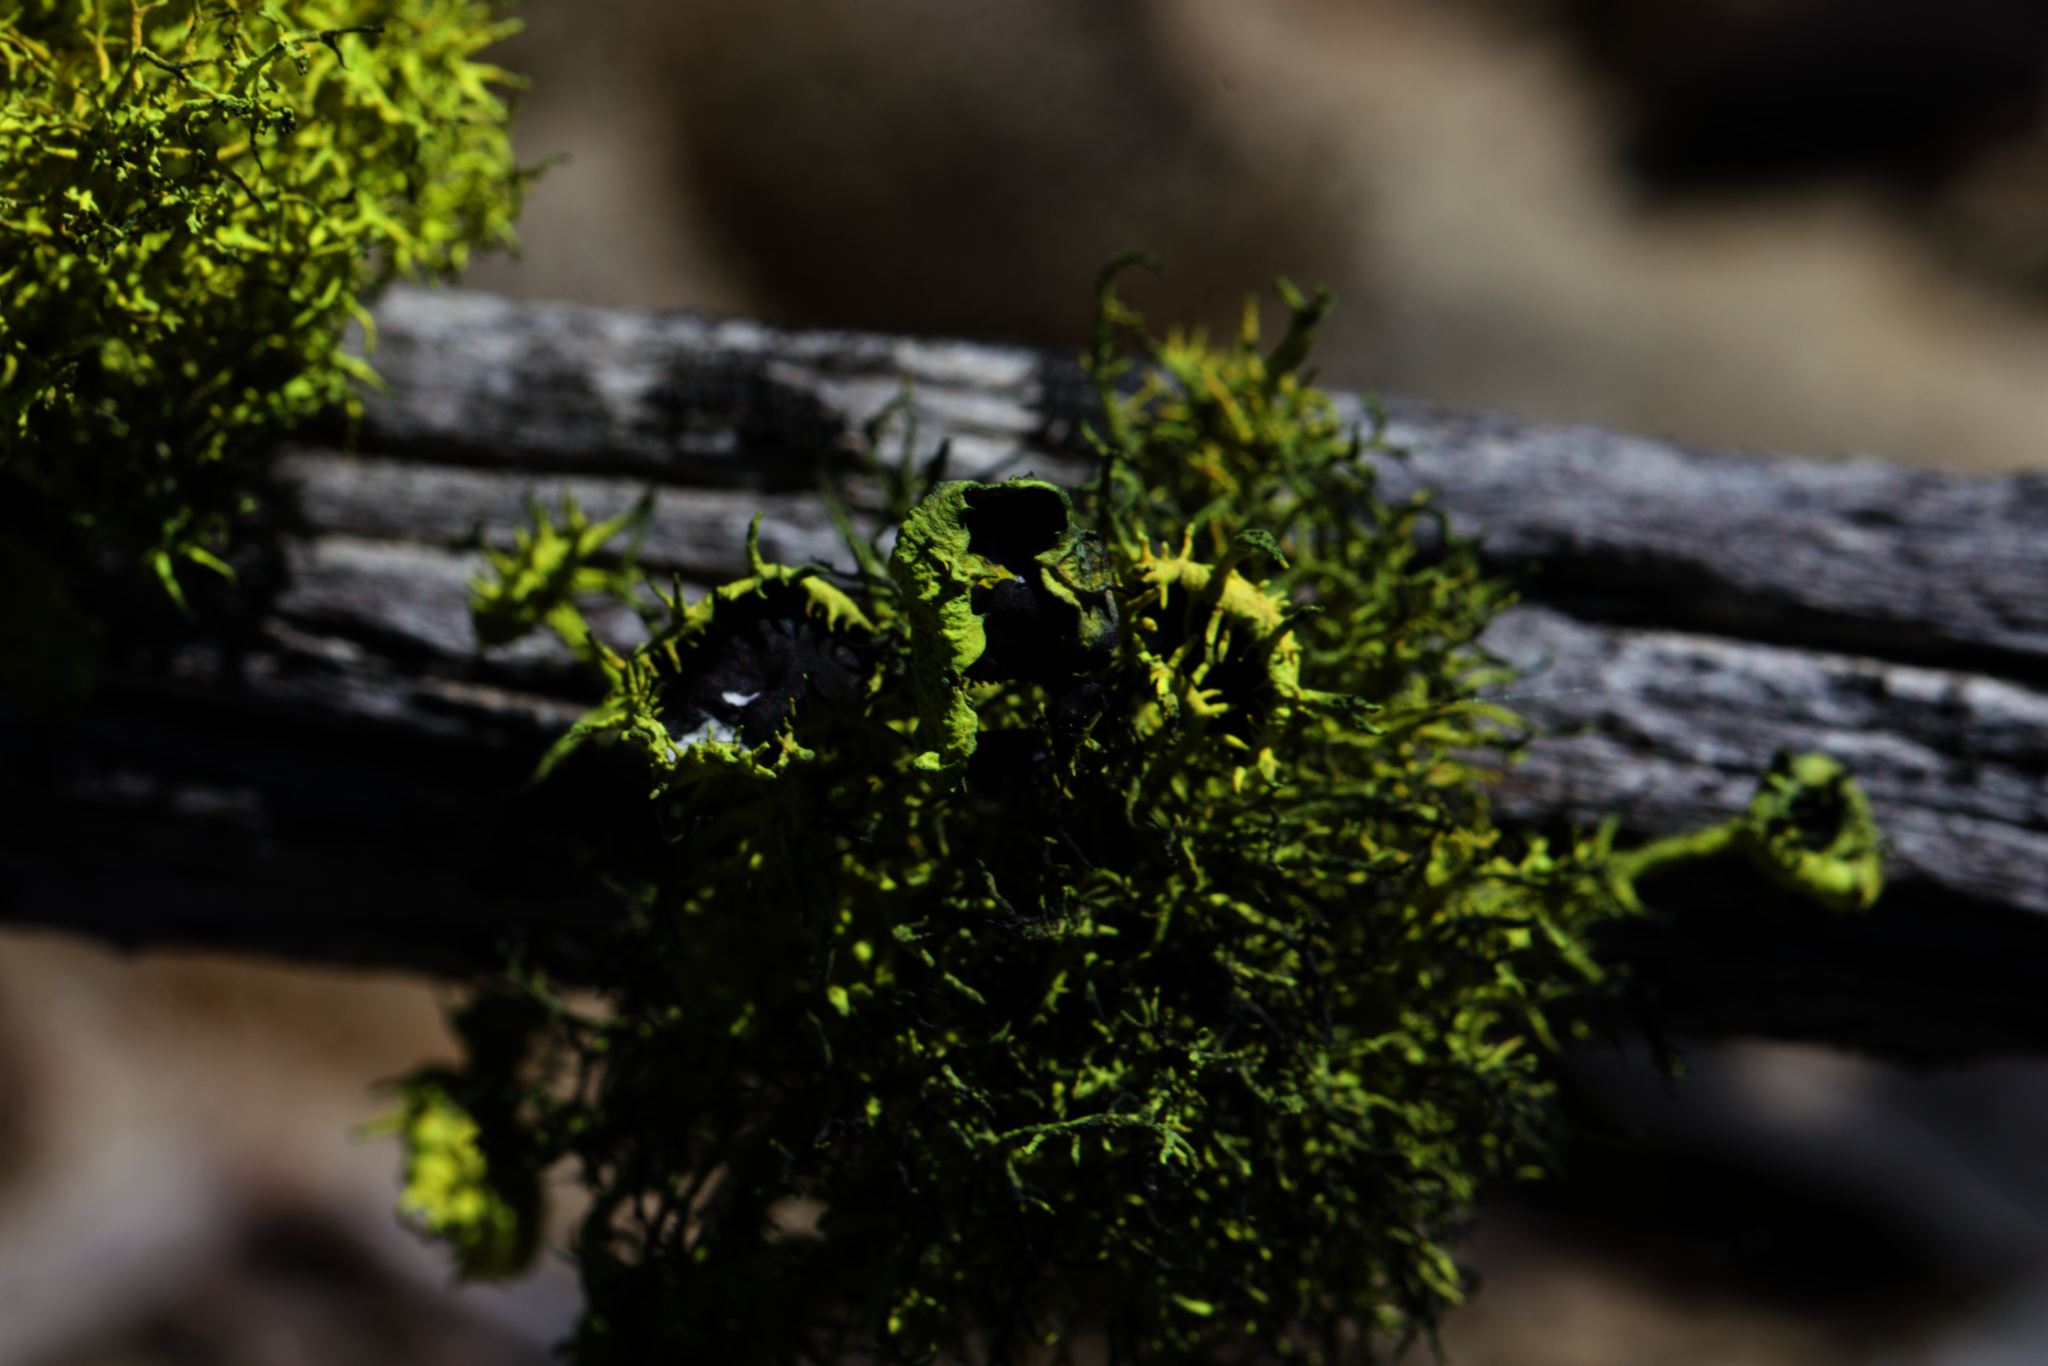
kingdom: Fungi
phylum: Ascomycota
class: Lecanoromycetes
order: Lecanorales
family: Parmeliaceae
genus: Letharia
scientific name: Letharia columbiana
